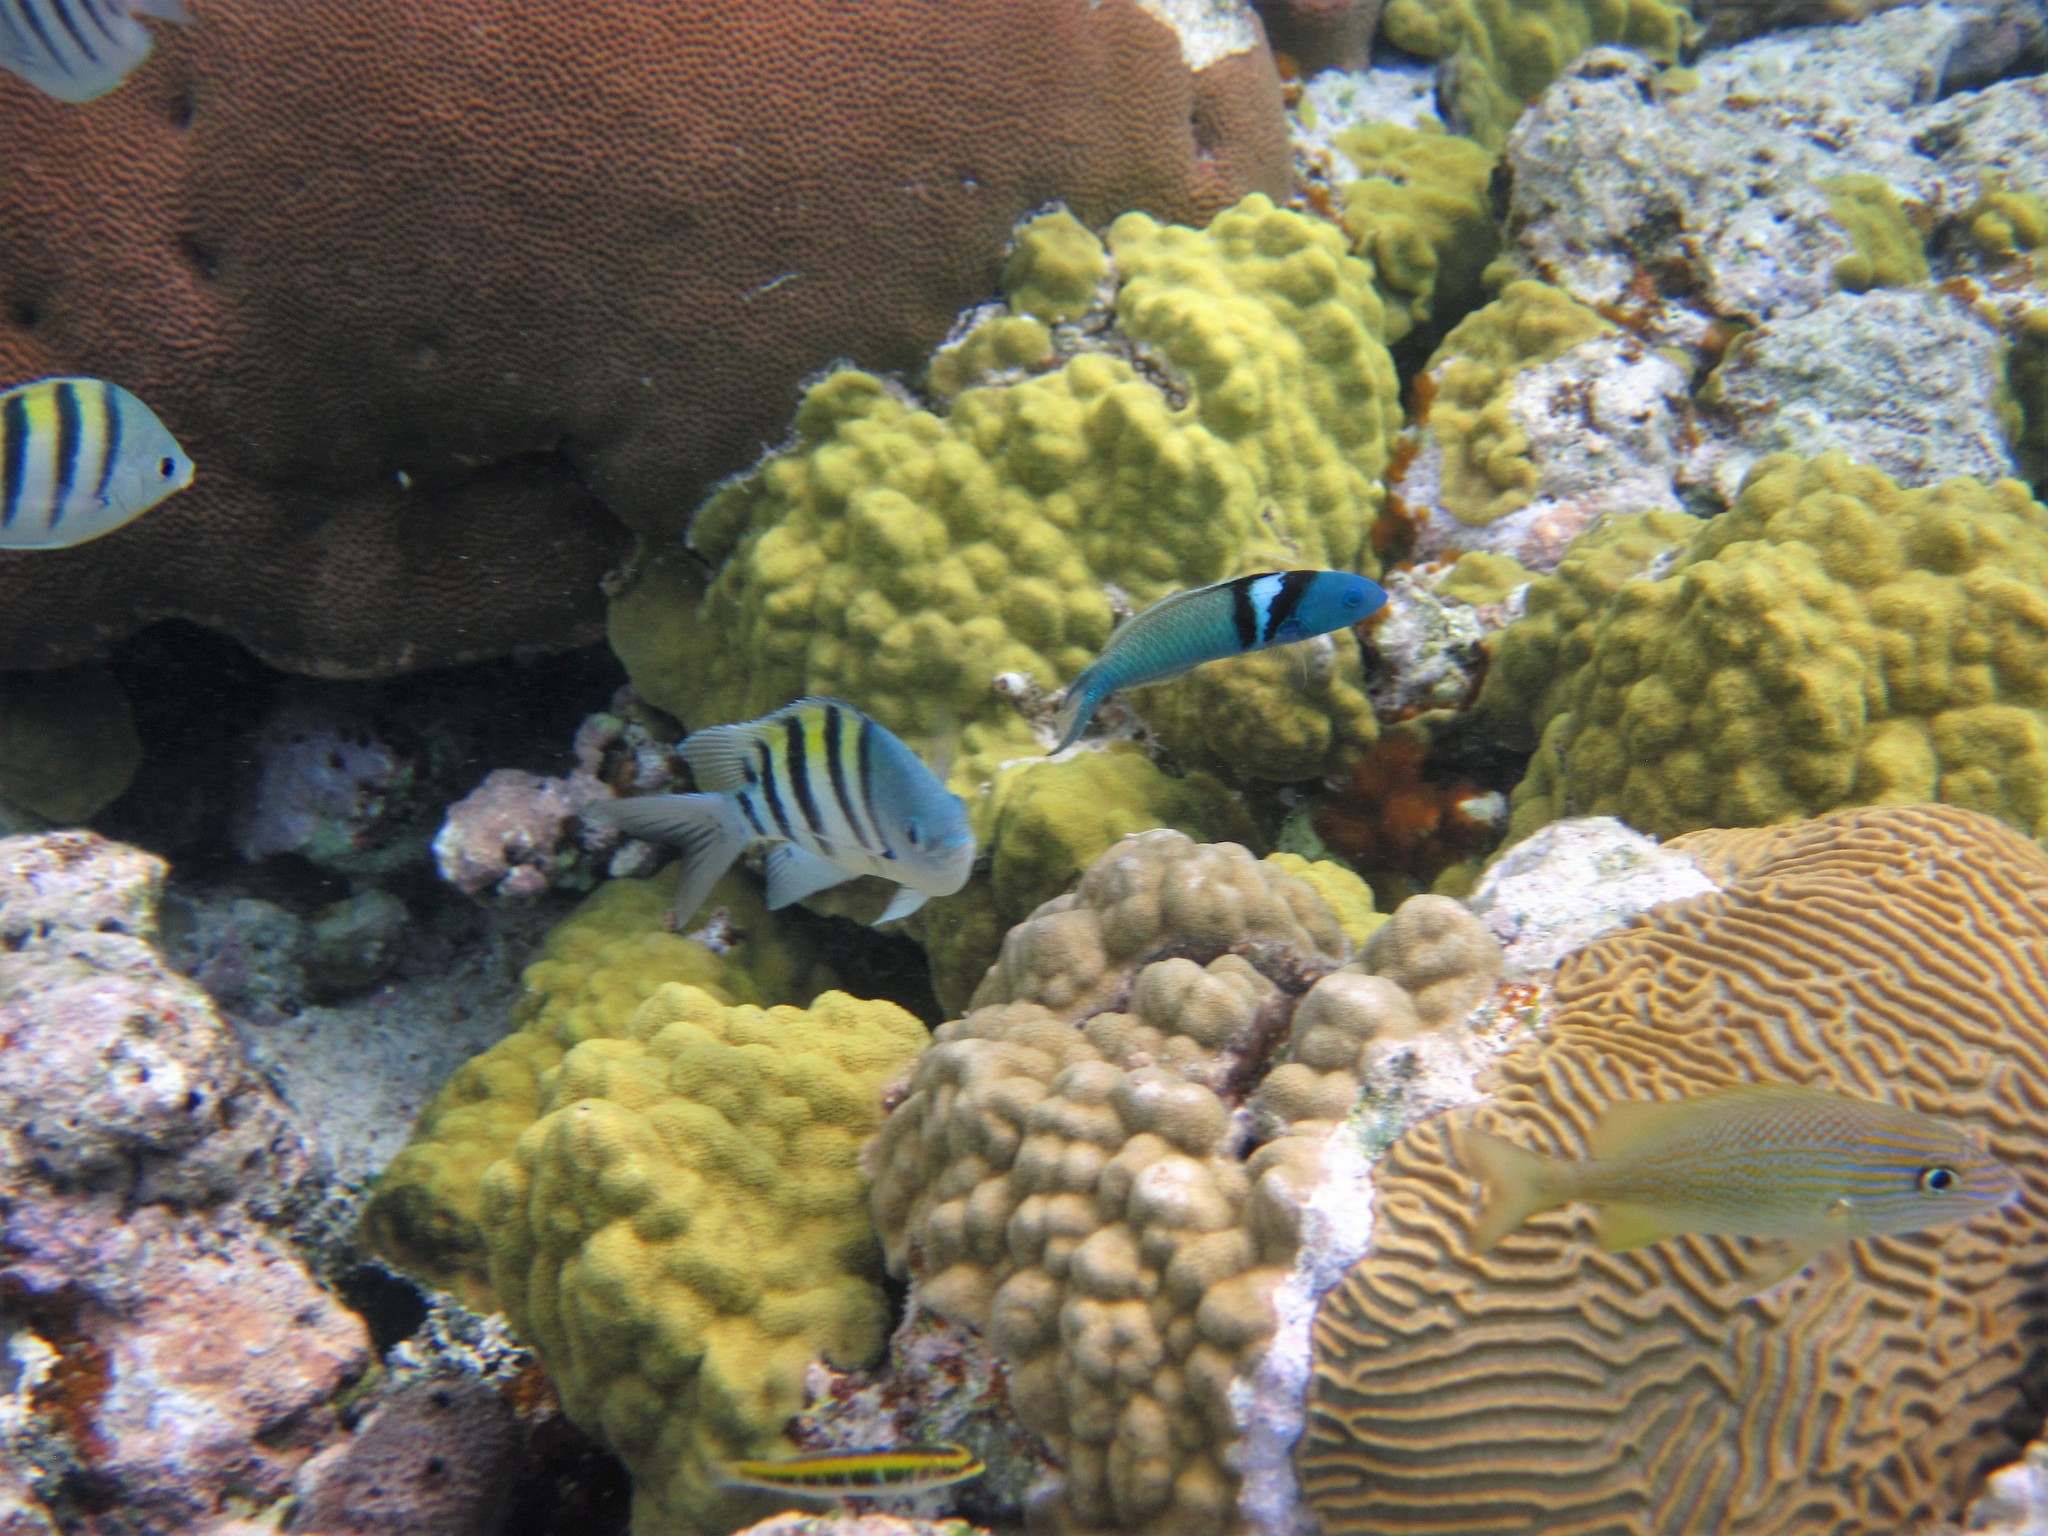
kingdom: Animalia
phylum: Chordata
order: Perciformes
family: Labridae
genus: Thalassoma
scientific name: Thalassoma bifasciatum
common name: Bluehead wrasse
